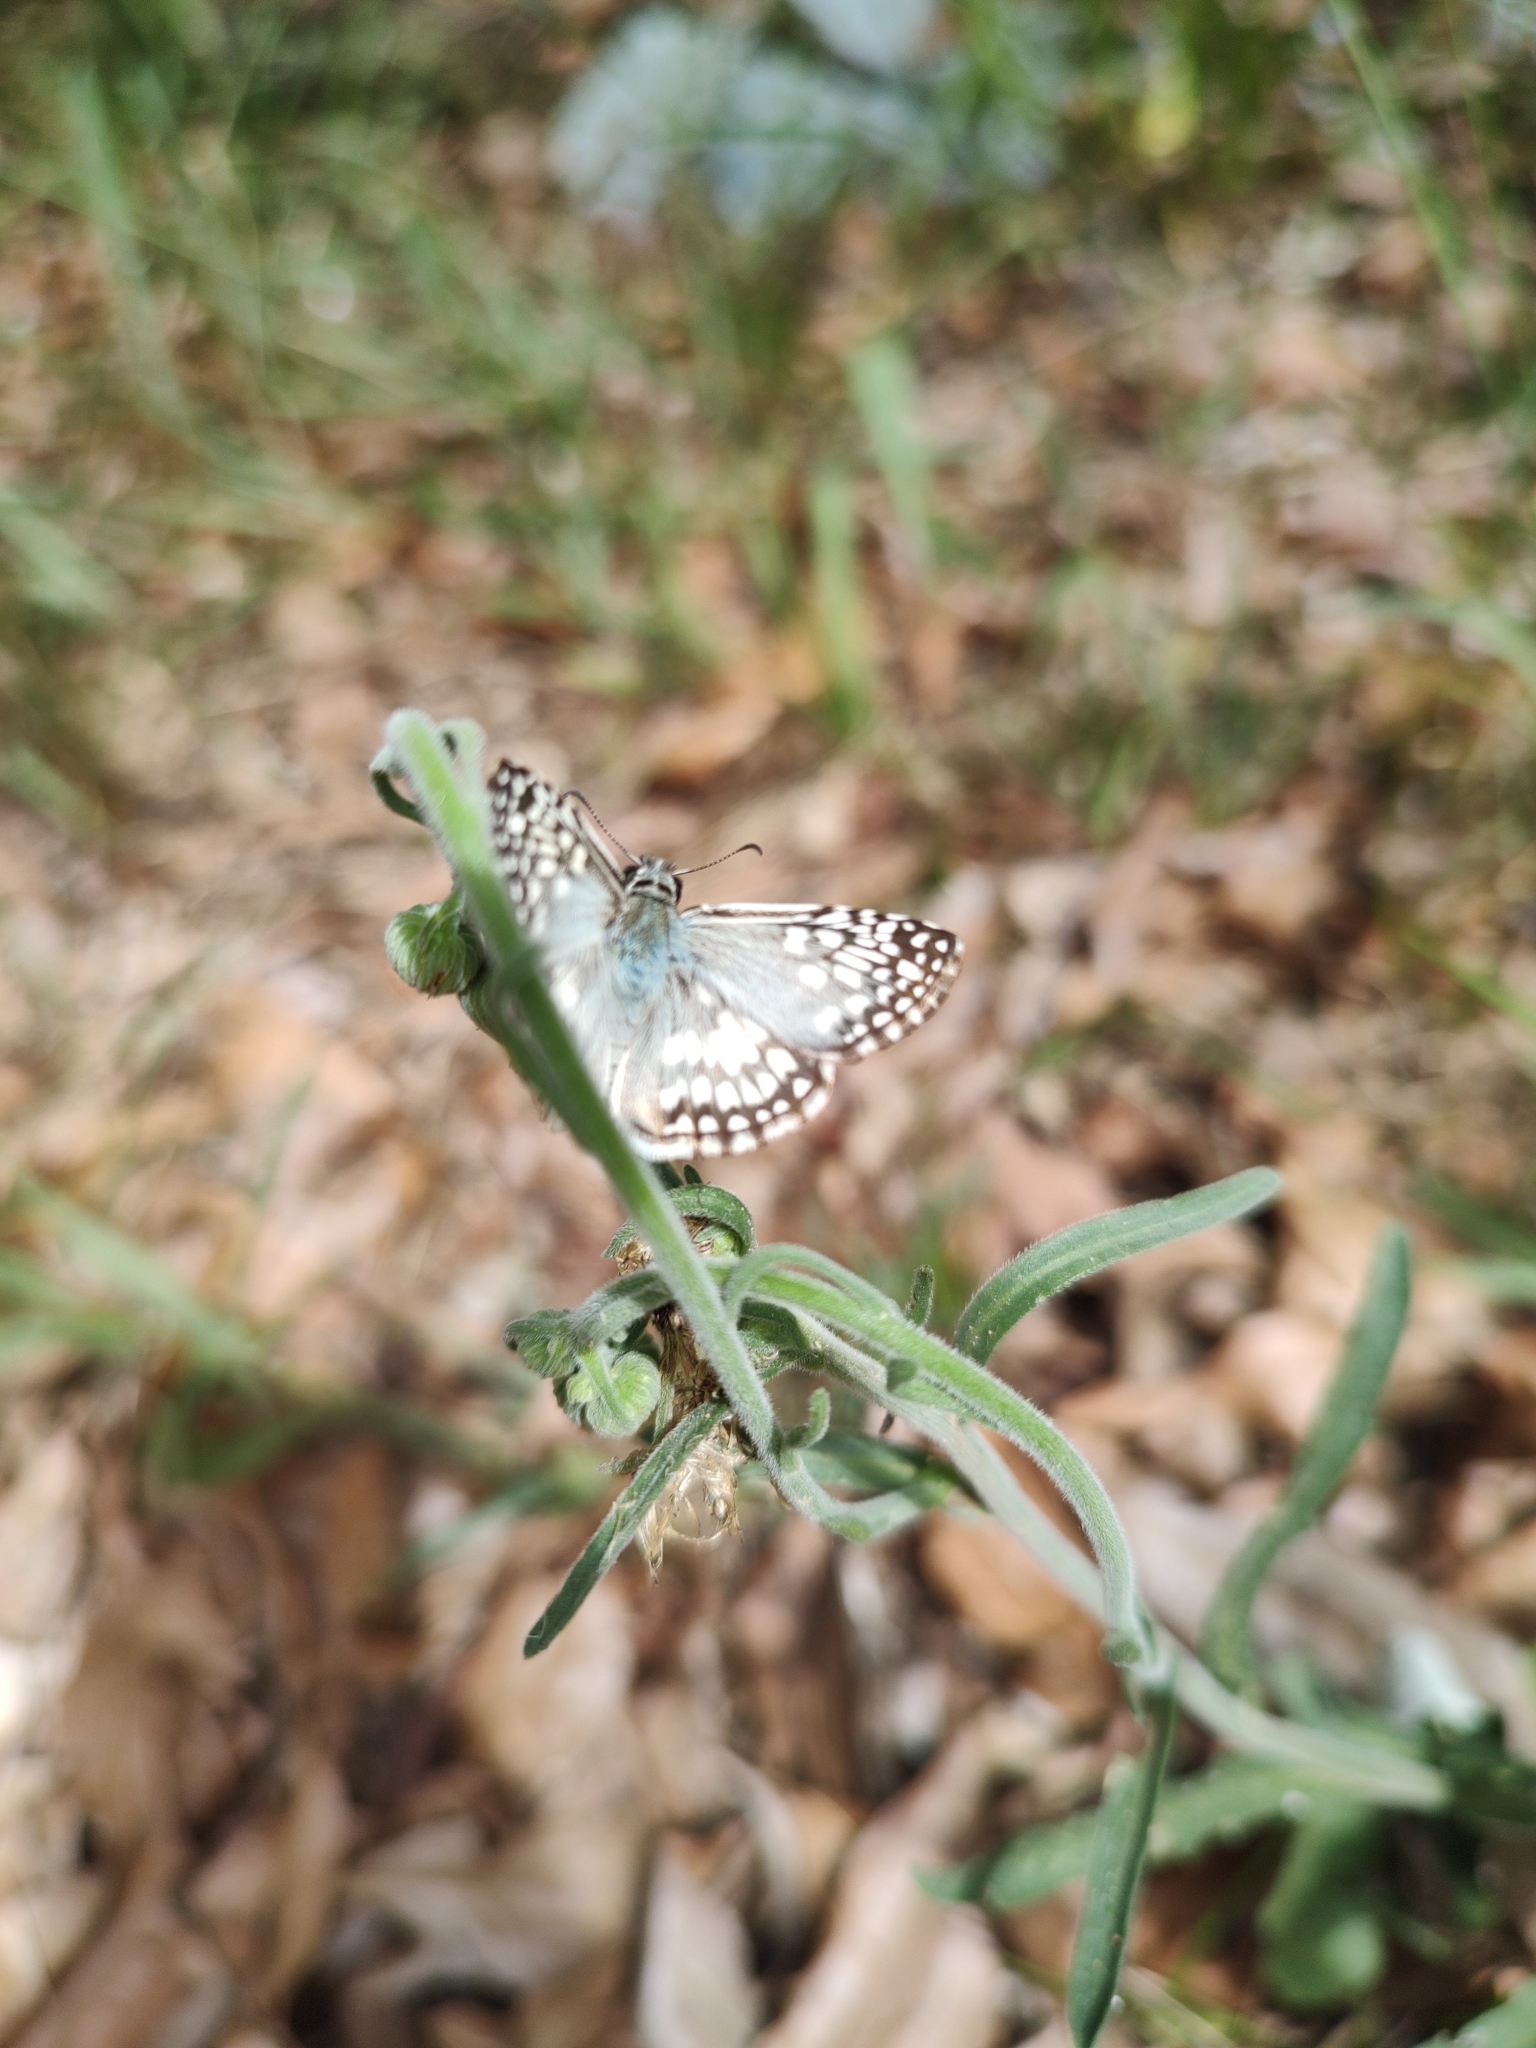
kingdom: Animalia
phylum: Arthropoda
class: Insecta
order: Lepidoptera
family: Hesperiidae
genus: Pyrgus
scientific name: Pyrgus oileus
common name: Tropical checkered-skipper
